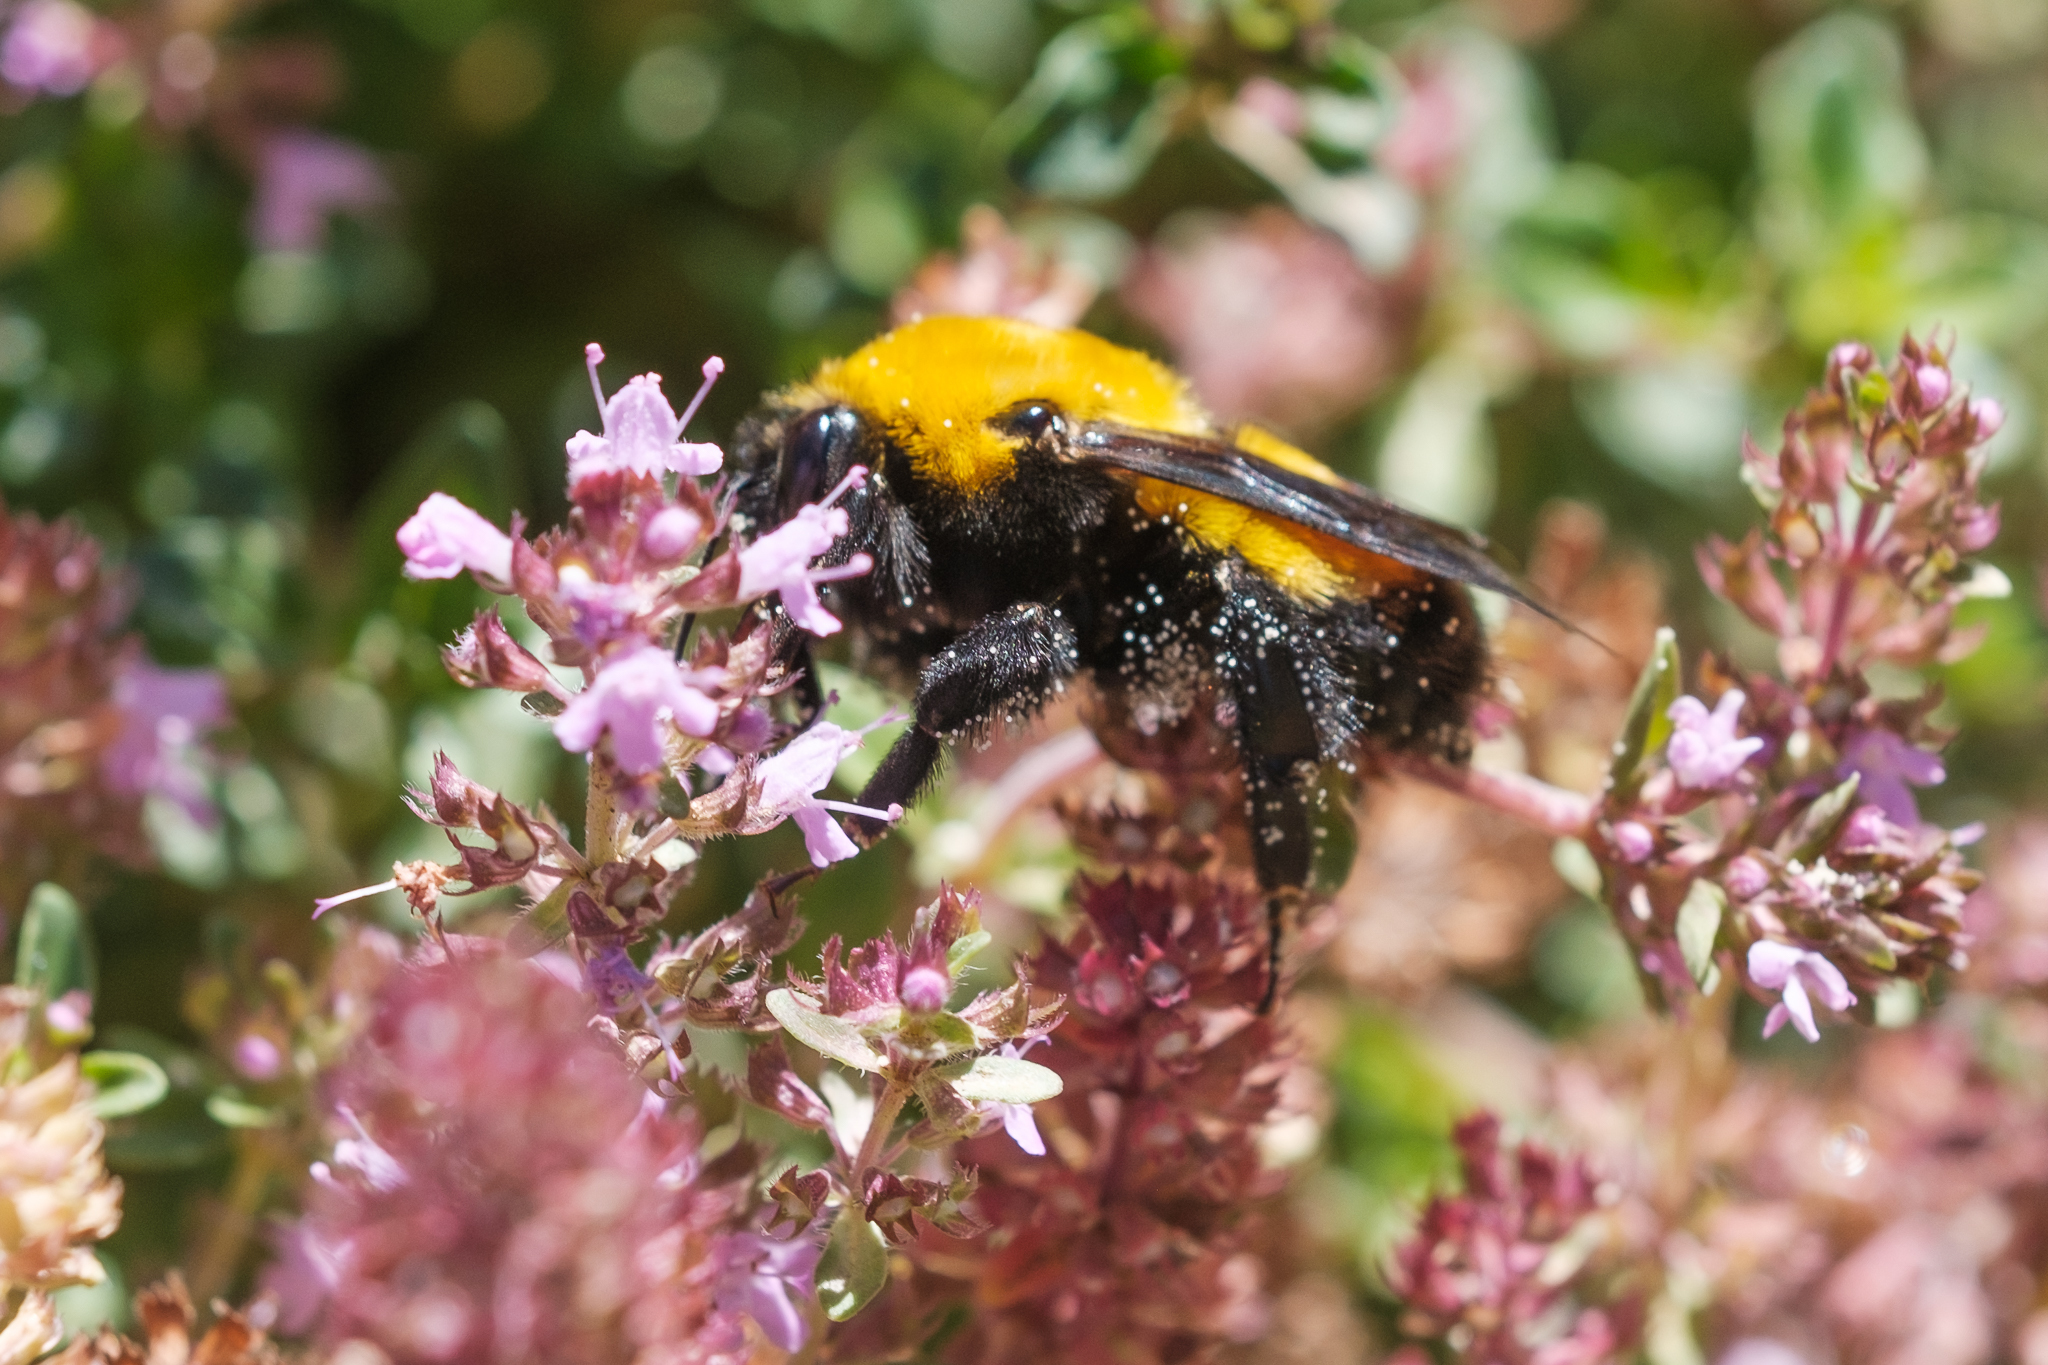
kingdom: Animalia
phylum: Arthropoda
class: Insecta
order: Hymenoptera
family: Apidae
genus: Bombus
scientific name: Bombus morrisoni
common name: Morrison bumble bee
